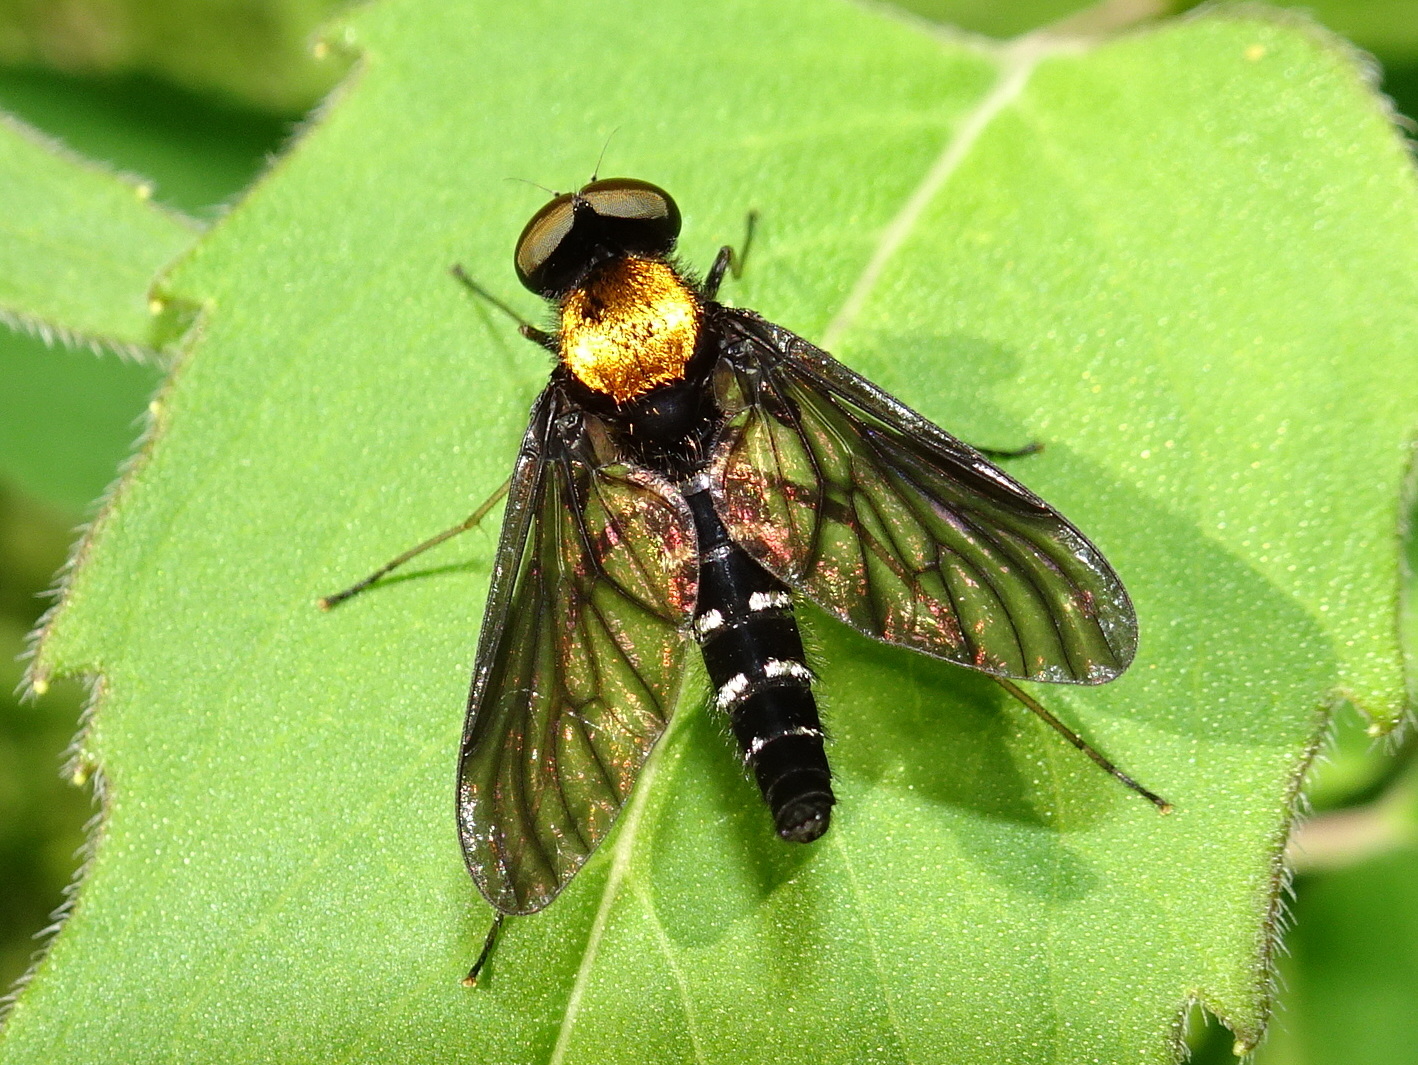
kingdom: Animalia
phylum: Arthropoda
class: Insecta
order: Diptera
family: Rhagionidae
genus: Chrysopilus
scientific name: Chrysopilus thoracicus
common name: Golden-backed snipe fly
